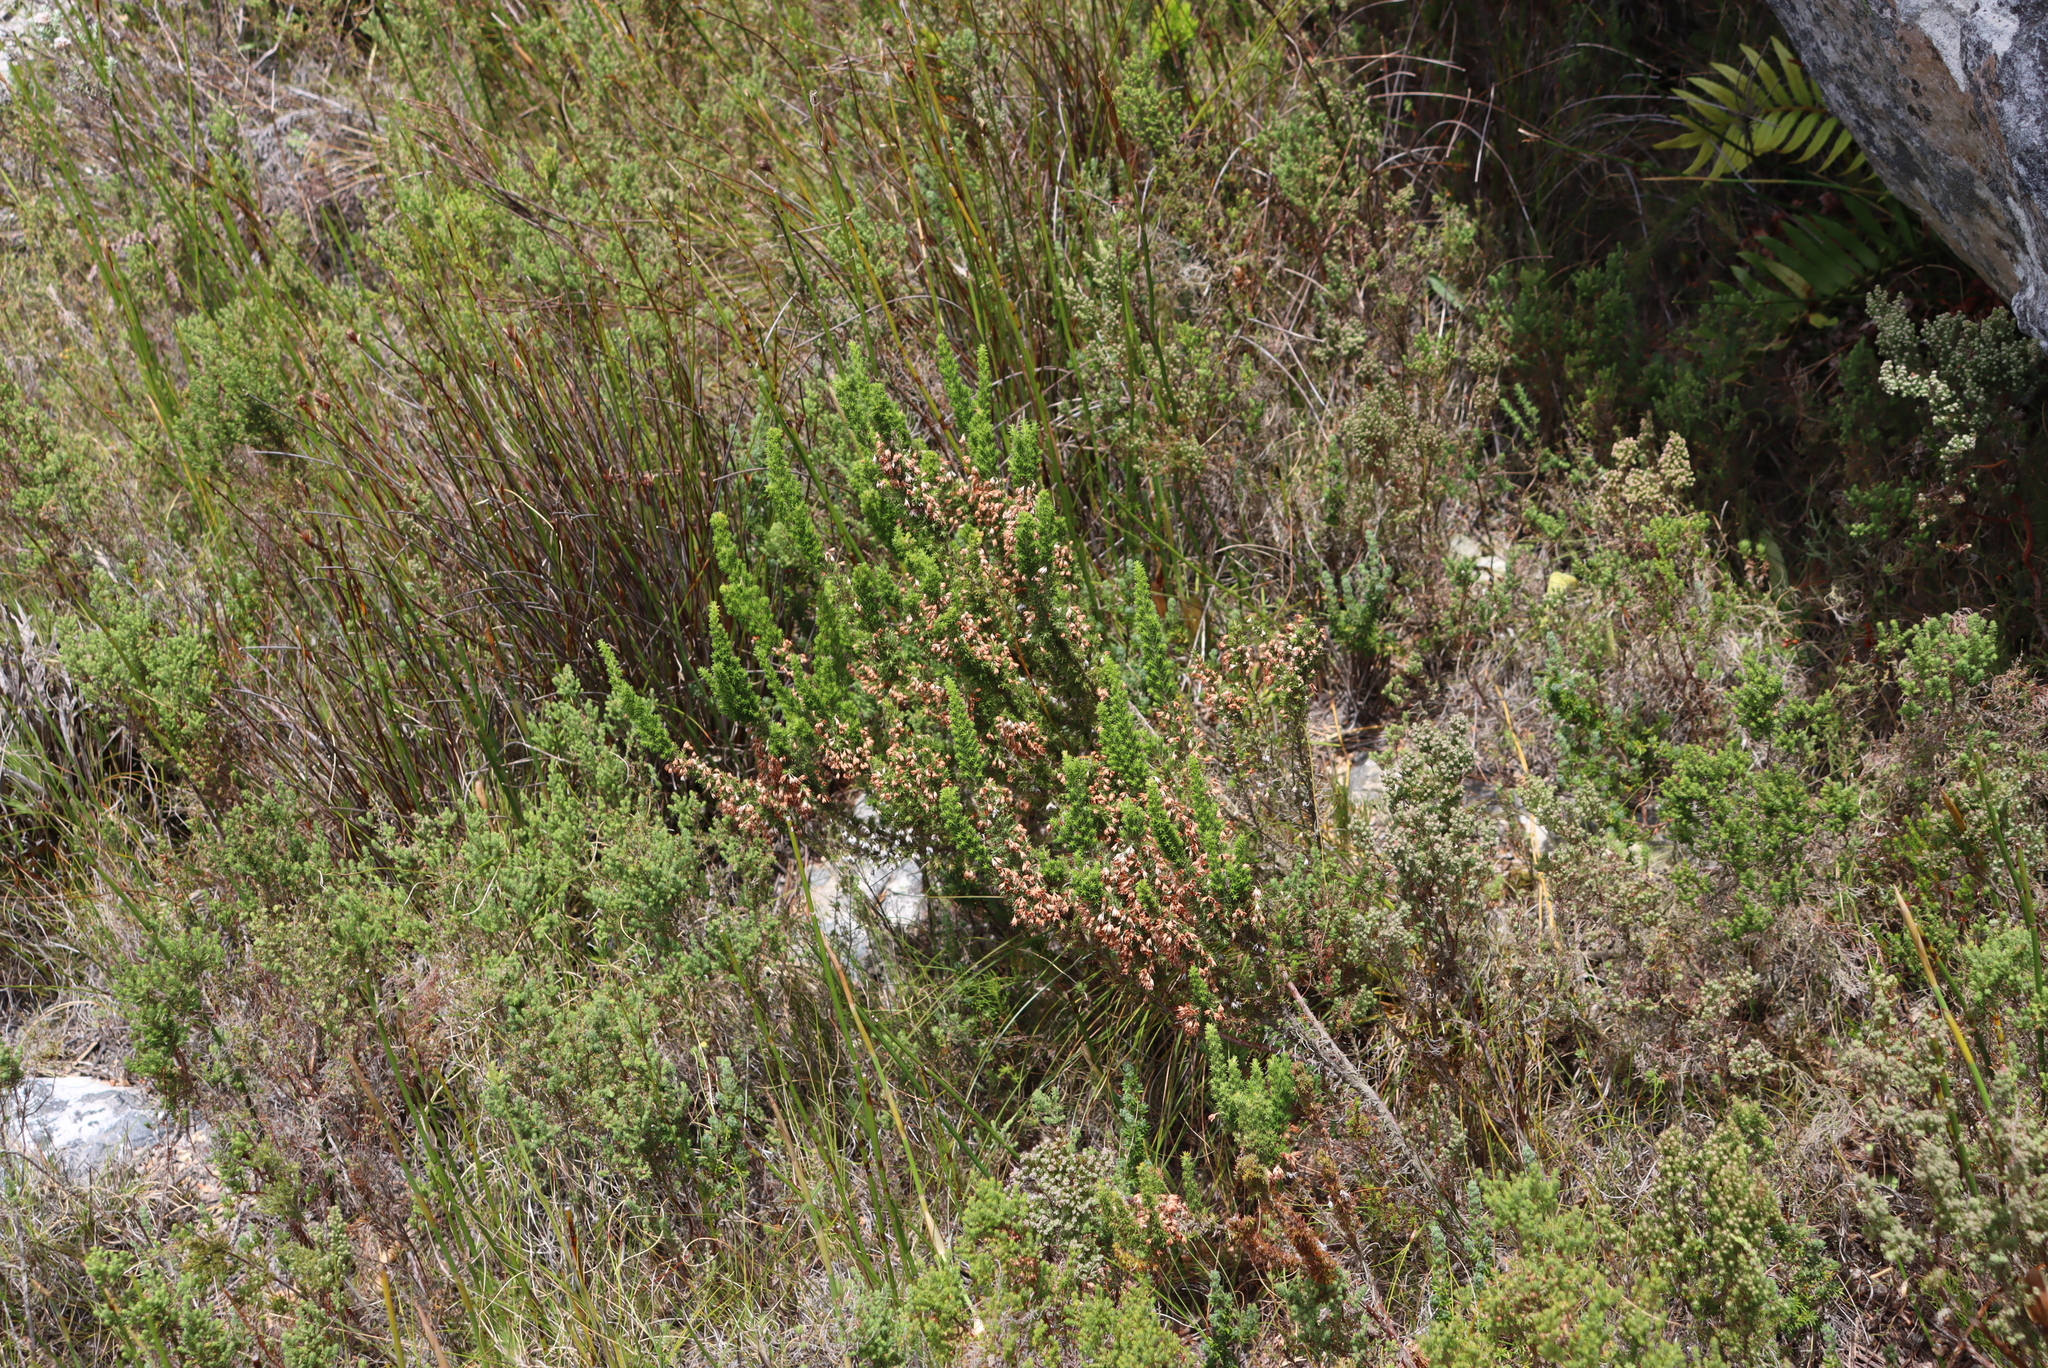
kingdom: Plantae
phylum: Tracheophyta
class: Magnoliopsida
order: Ericales
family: Ericaceae
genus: Erica
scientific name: Erica penicilliformis
